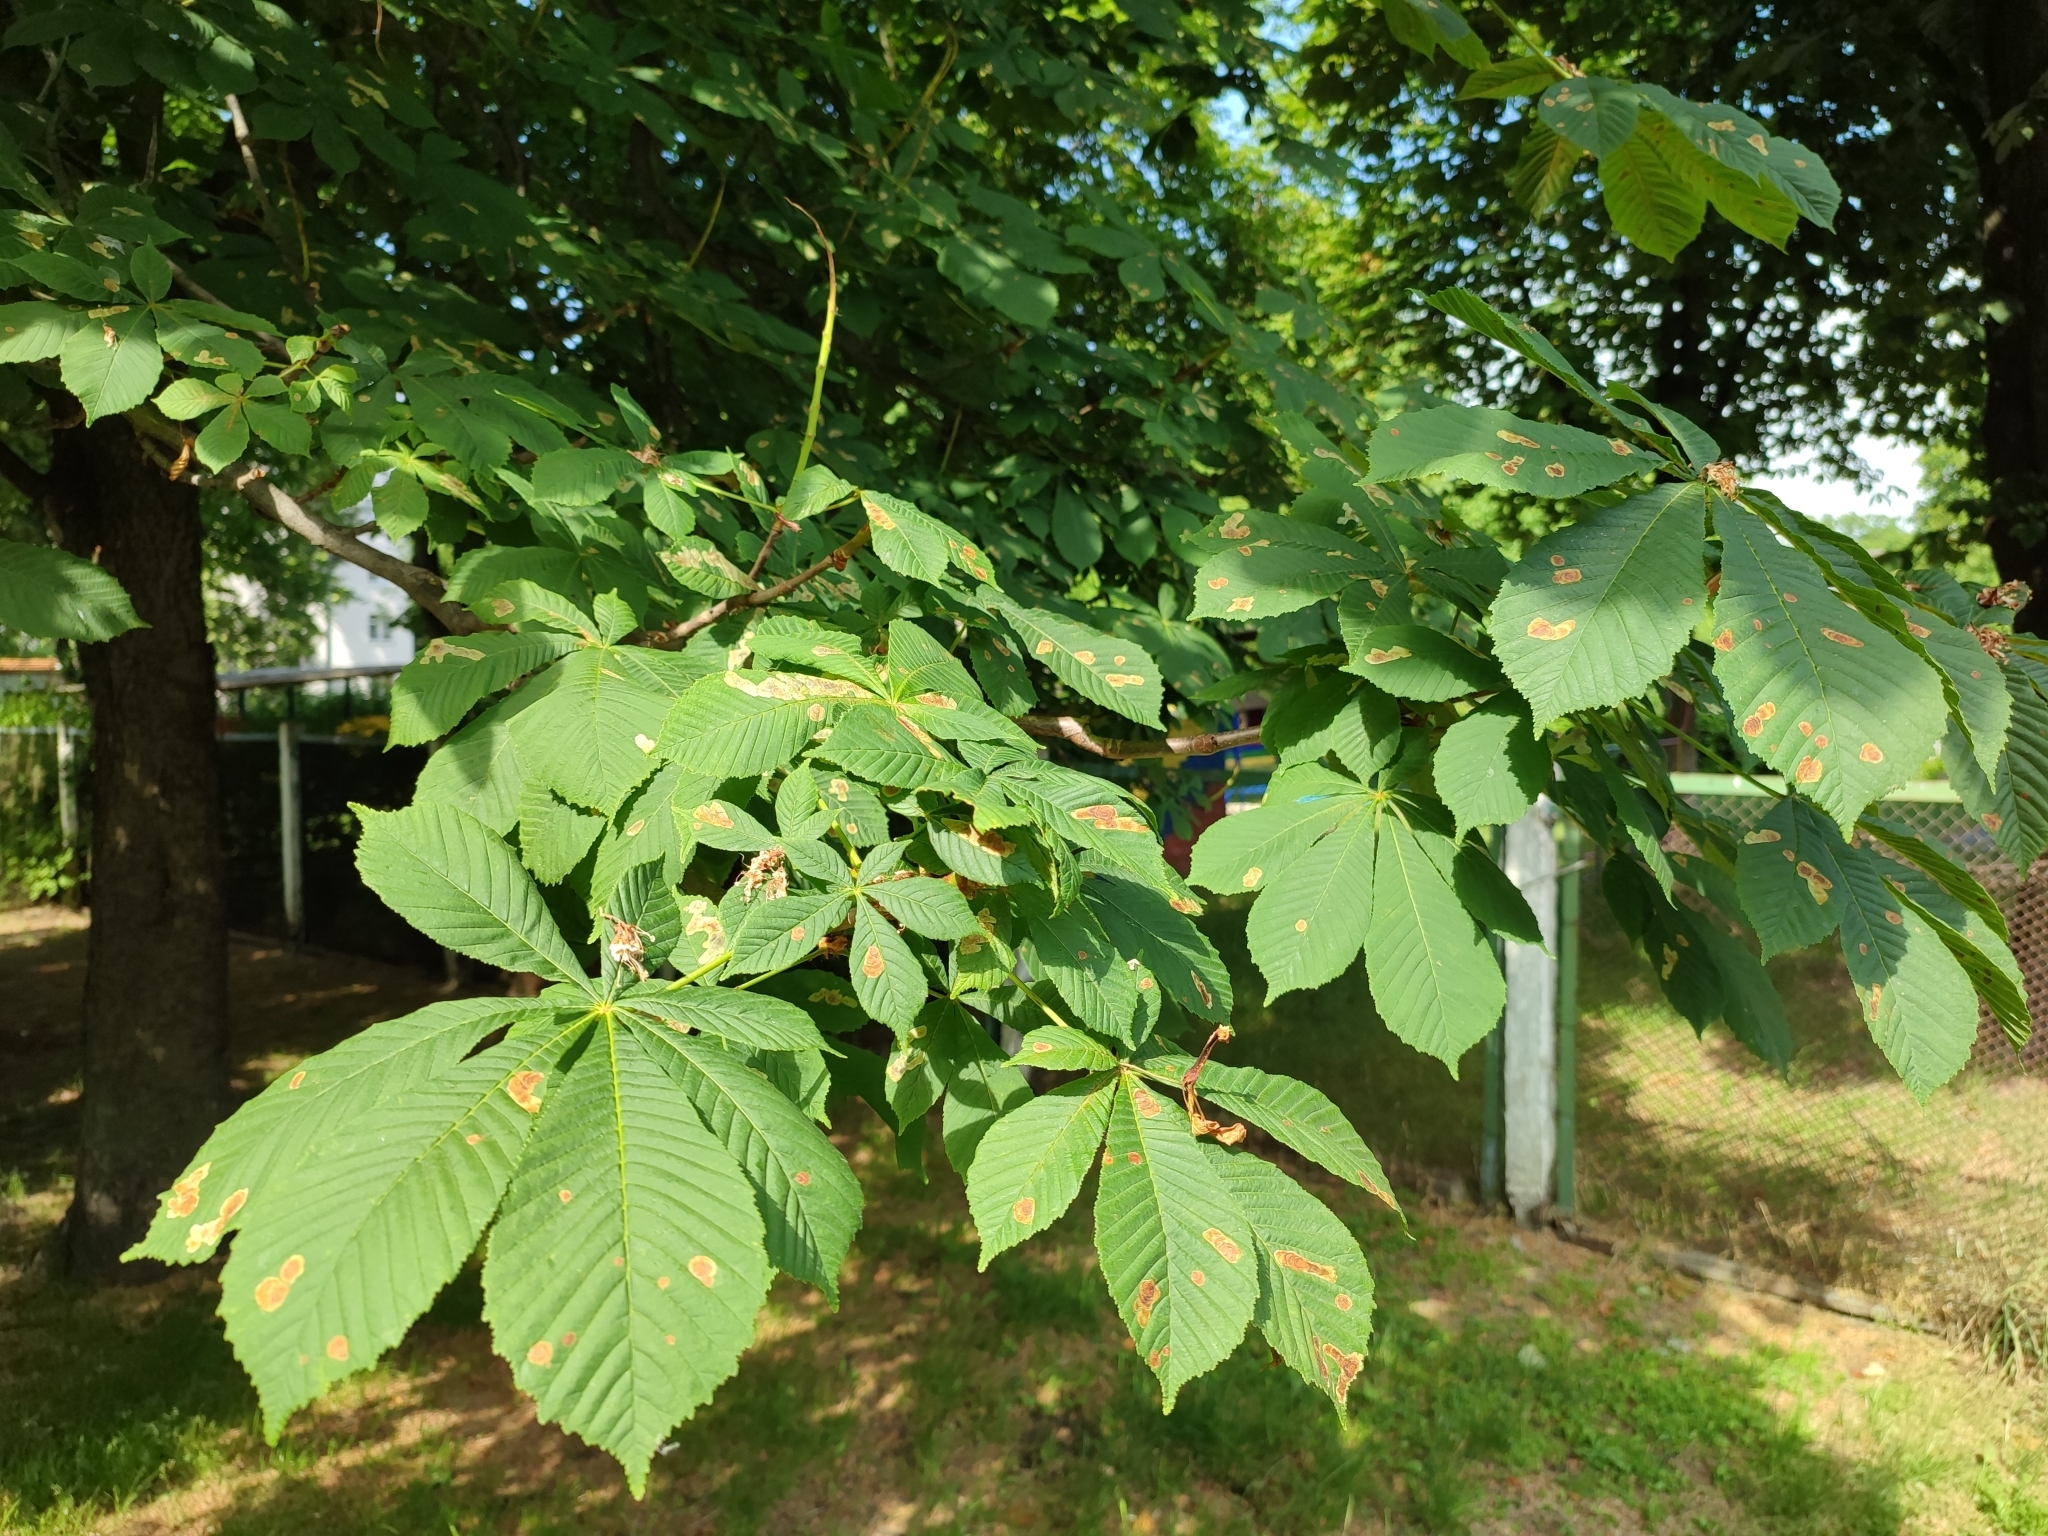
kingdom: Animalia
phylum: Arthropoda
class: Insecta
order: Lepidoptera
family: Gracillariidae
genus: Cameraria
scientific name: Cameraria ohridella
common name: Horse-chestnut leaf-miner
